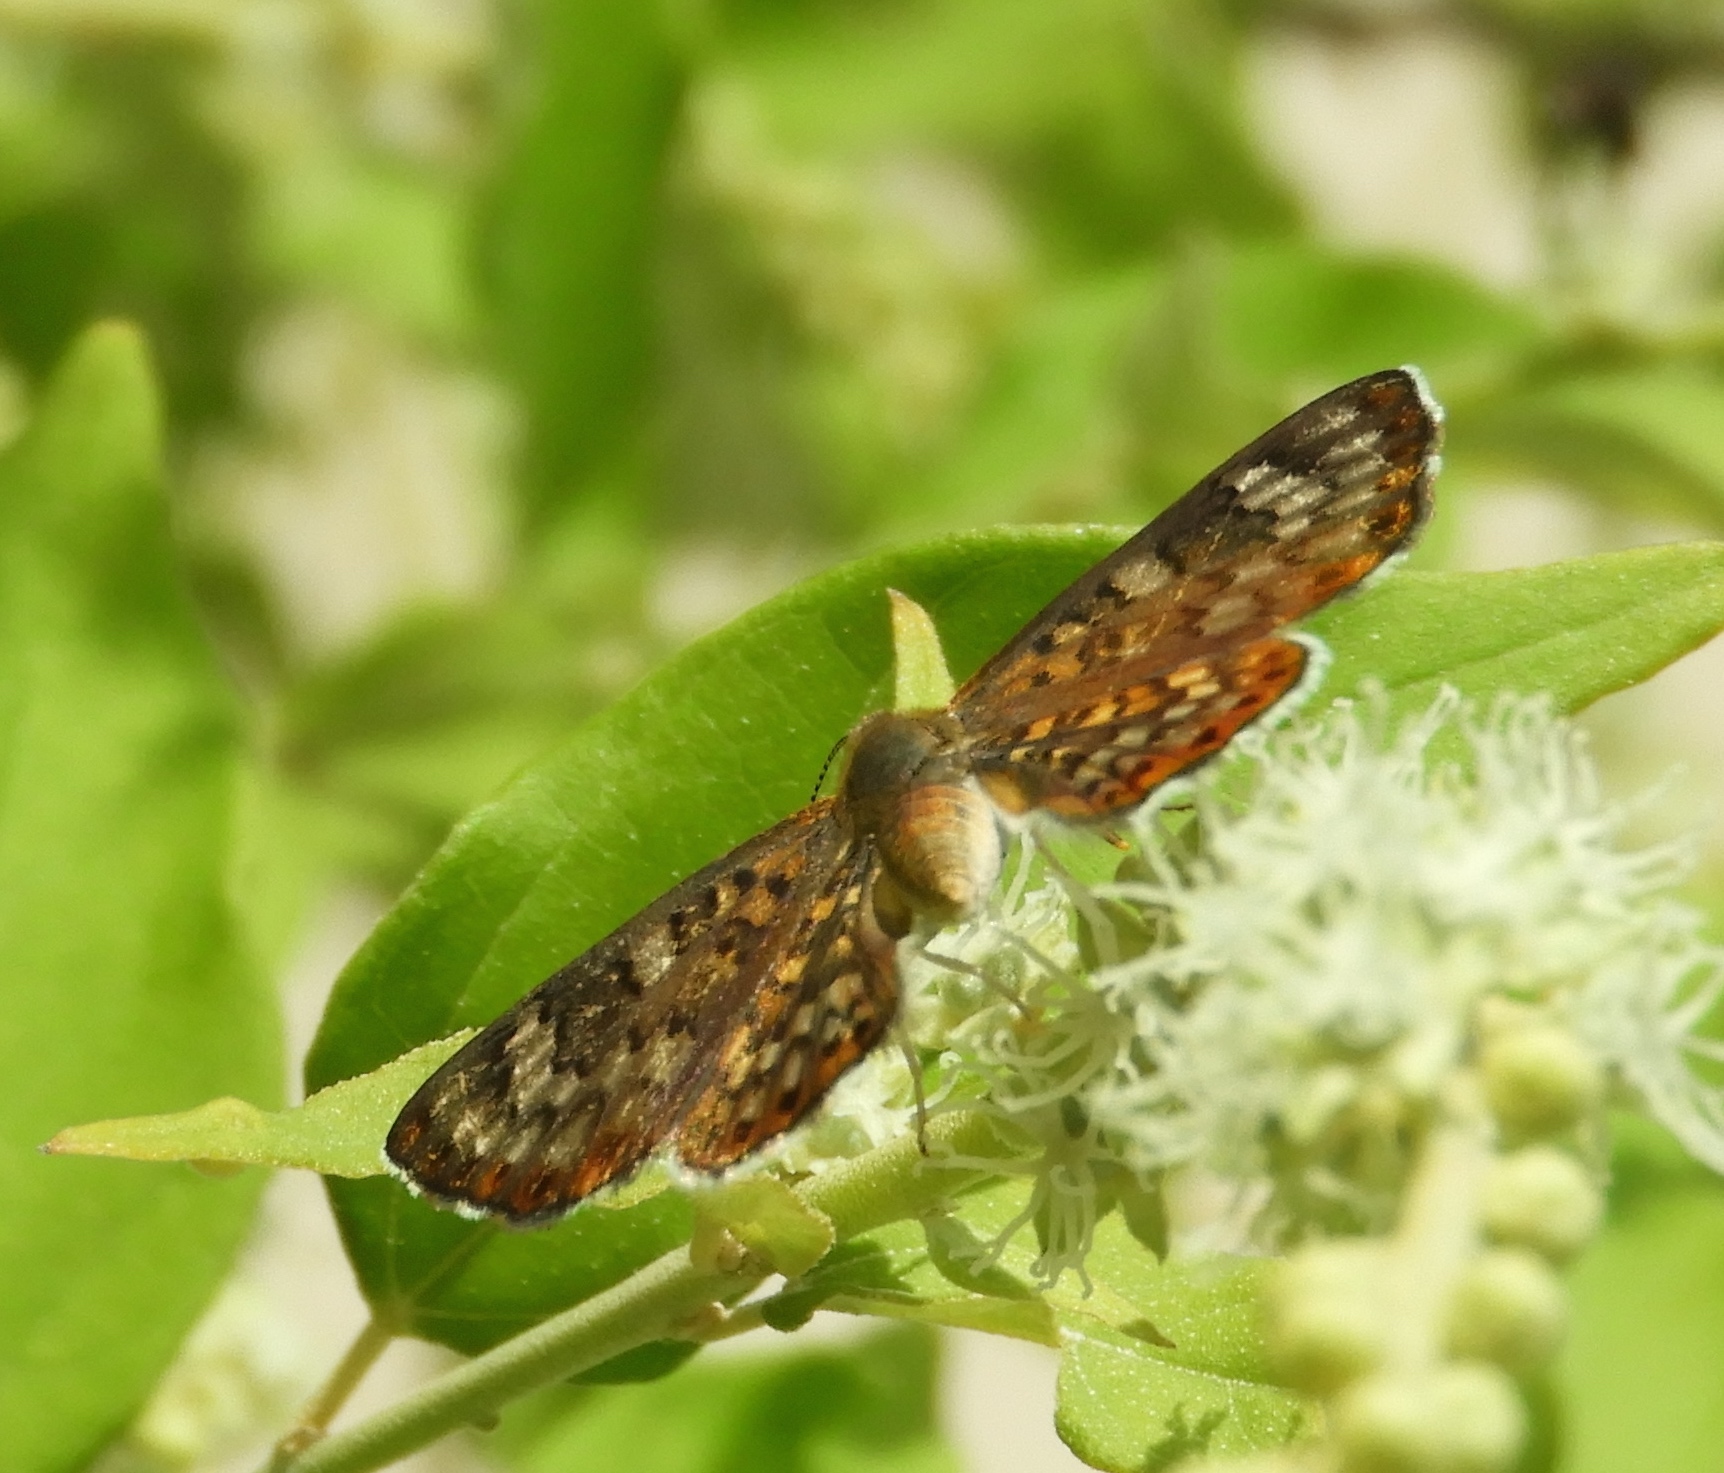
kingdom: Animalia
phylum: Arthropoda
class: Insecta
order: Lepidoptera
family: Riodinidae
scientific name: Riodinidae
